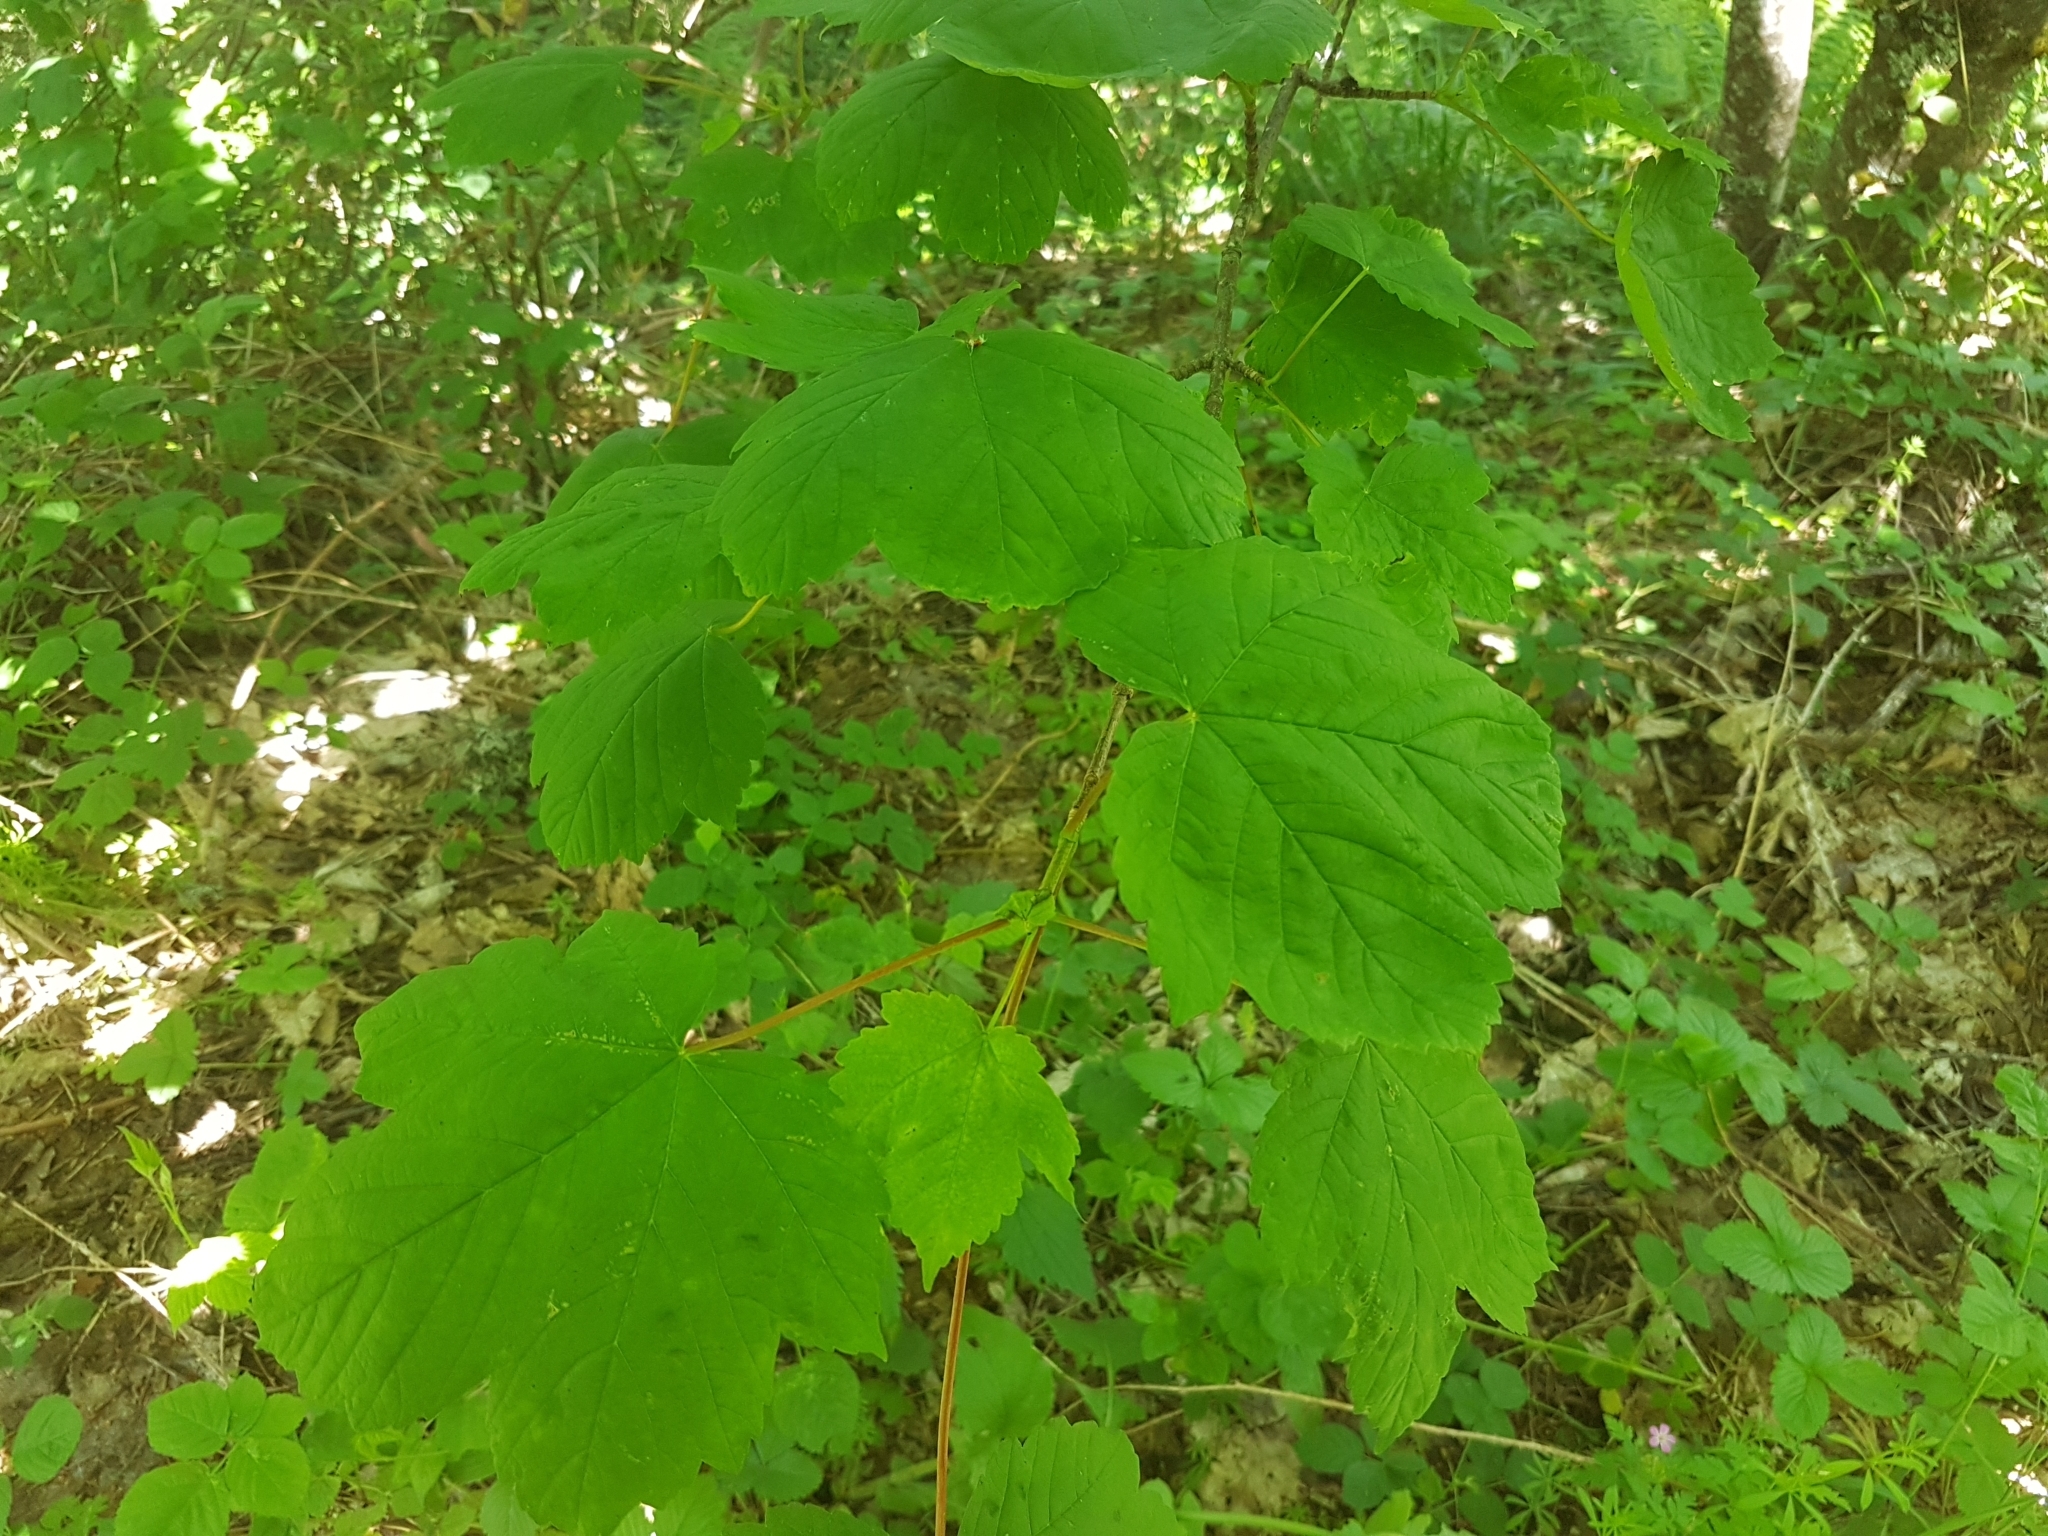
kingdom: Plantae
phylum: Tracheophyta
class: Magnoliopsida
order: Sapindales
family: Sapindaceae
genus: Acer
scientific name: Acer pseudoplatanus
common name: Sycamore
